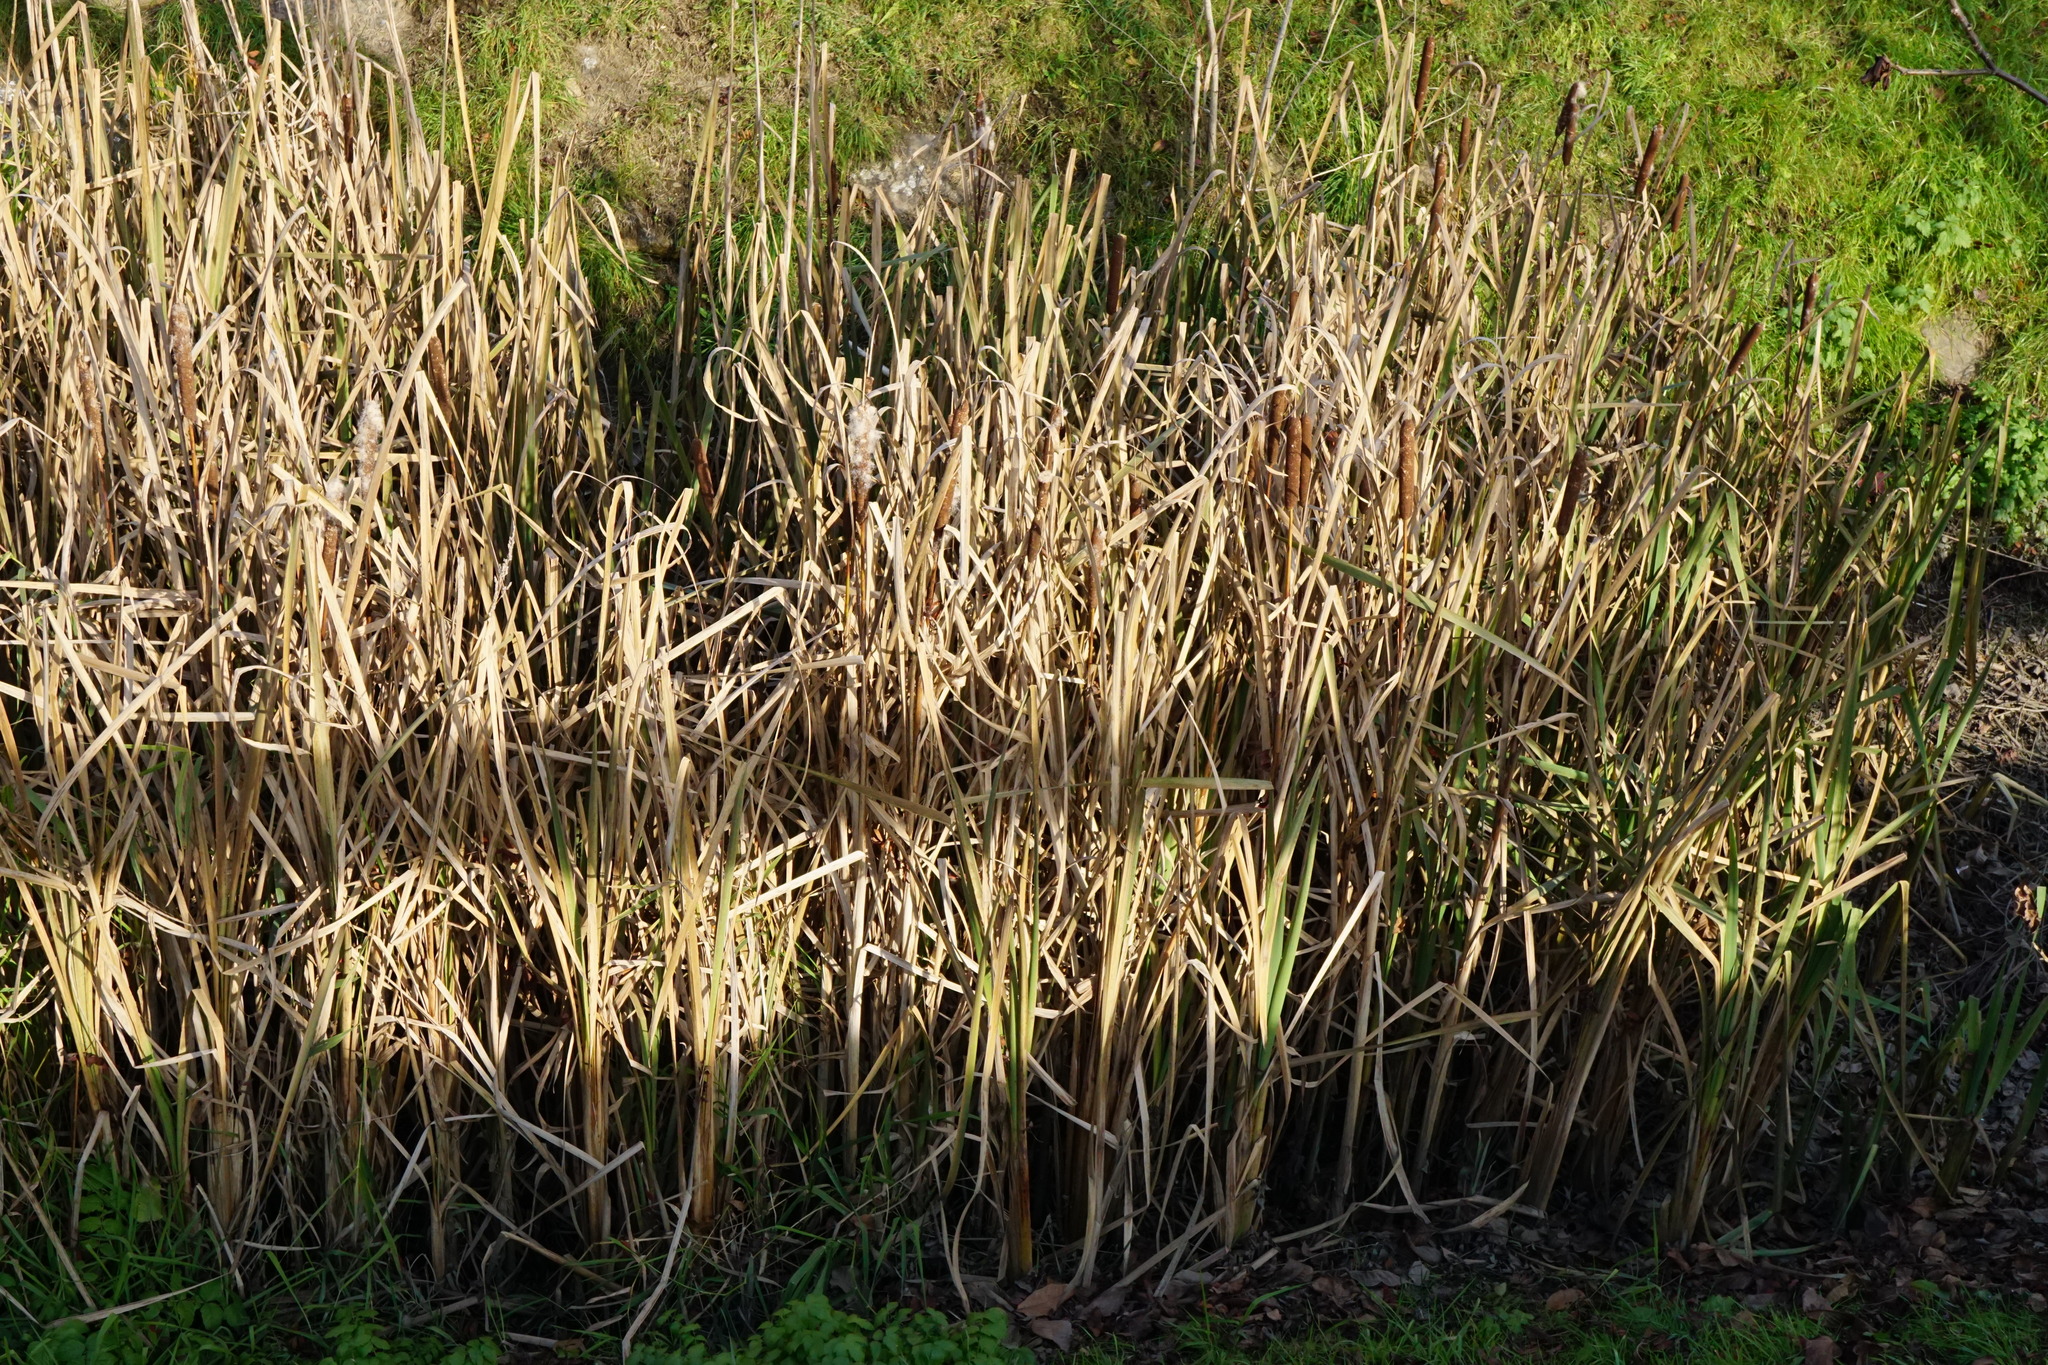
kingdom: Plantae
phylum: Tracheophyta
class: Liliopsida
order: Poales
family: Typhaceae
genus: Typha
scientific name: Typha latifolia
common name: Broadleaf cattail
